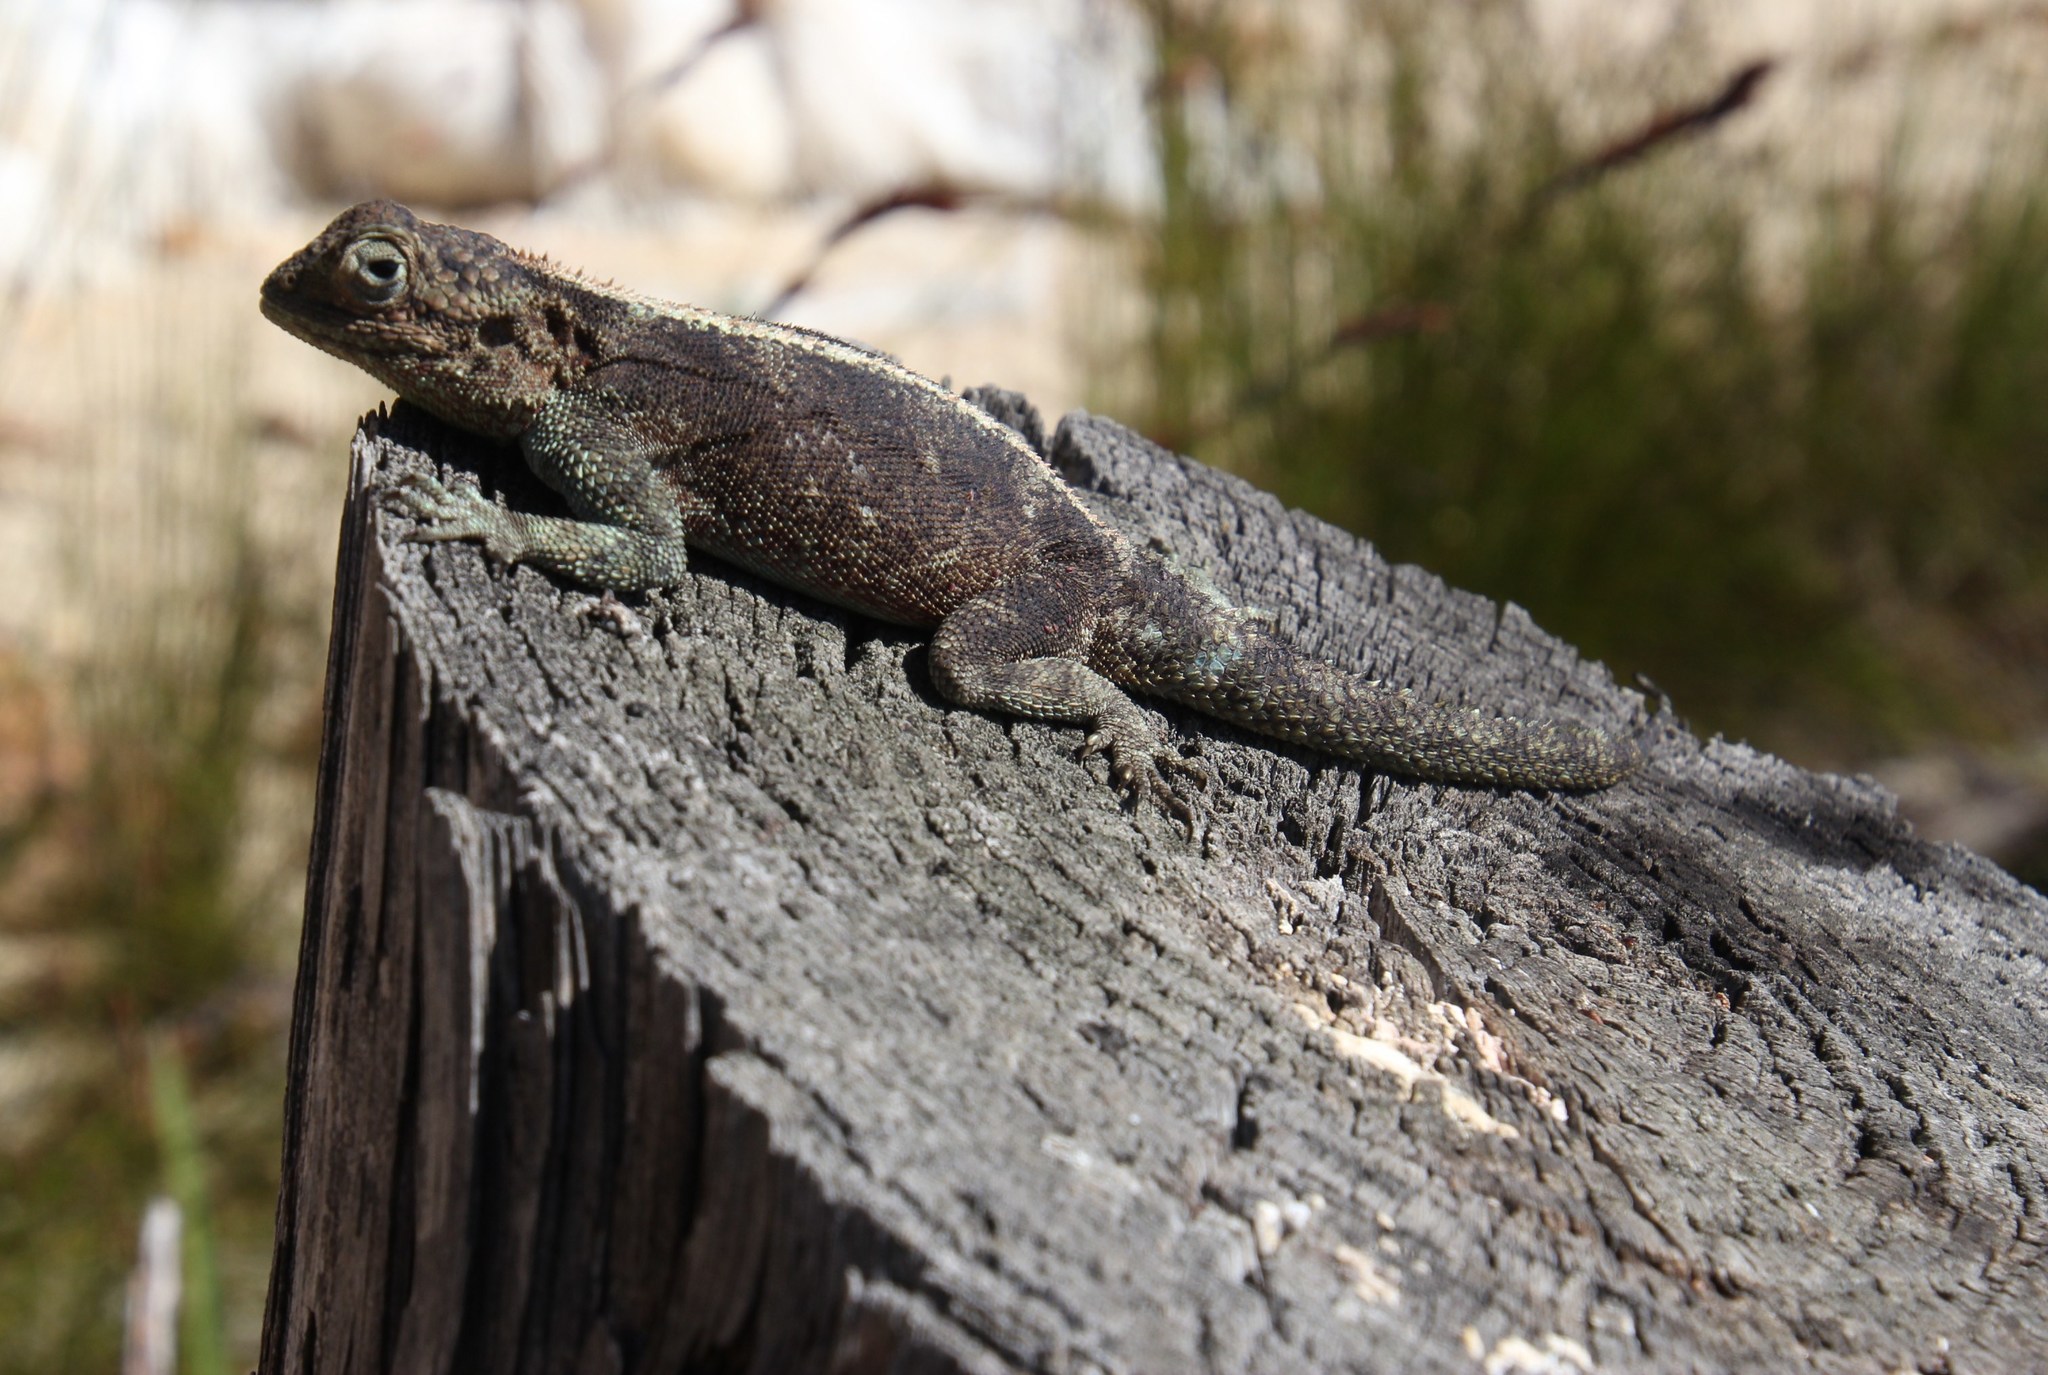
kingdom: Animalia
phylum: Chordata
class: Squamata
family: Agamidae
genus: Agama
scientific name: Agama atra
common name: Southern african rock agama
